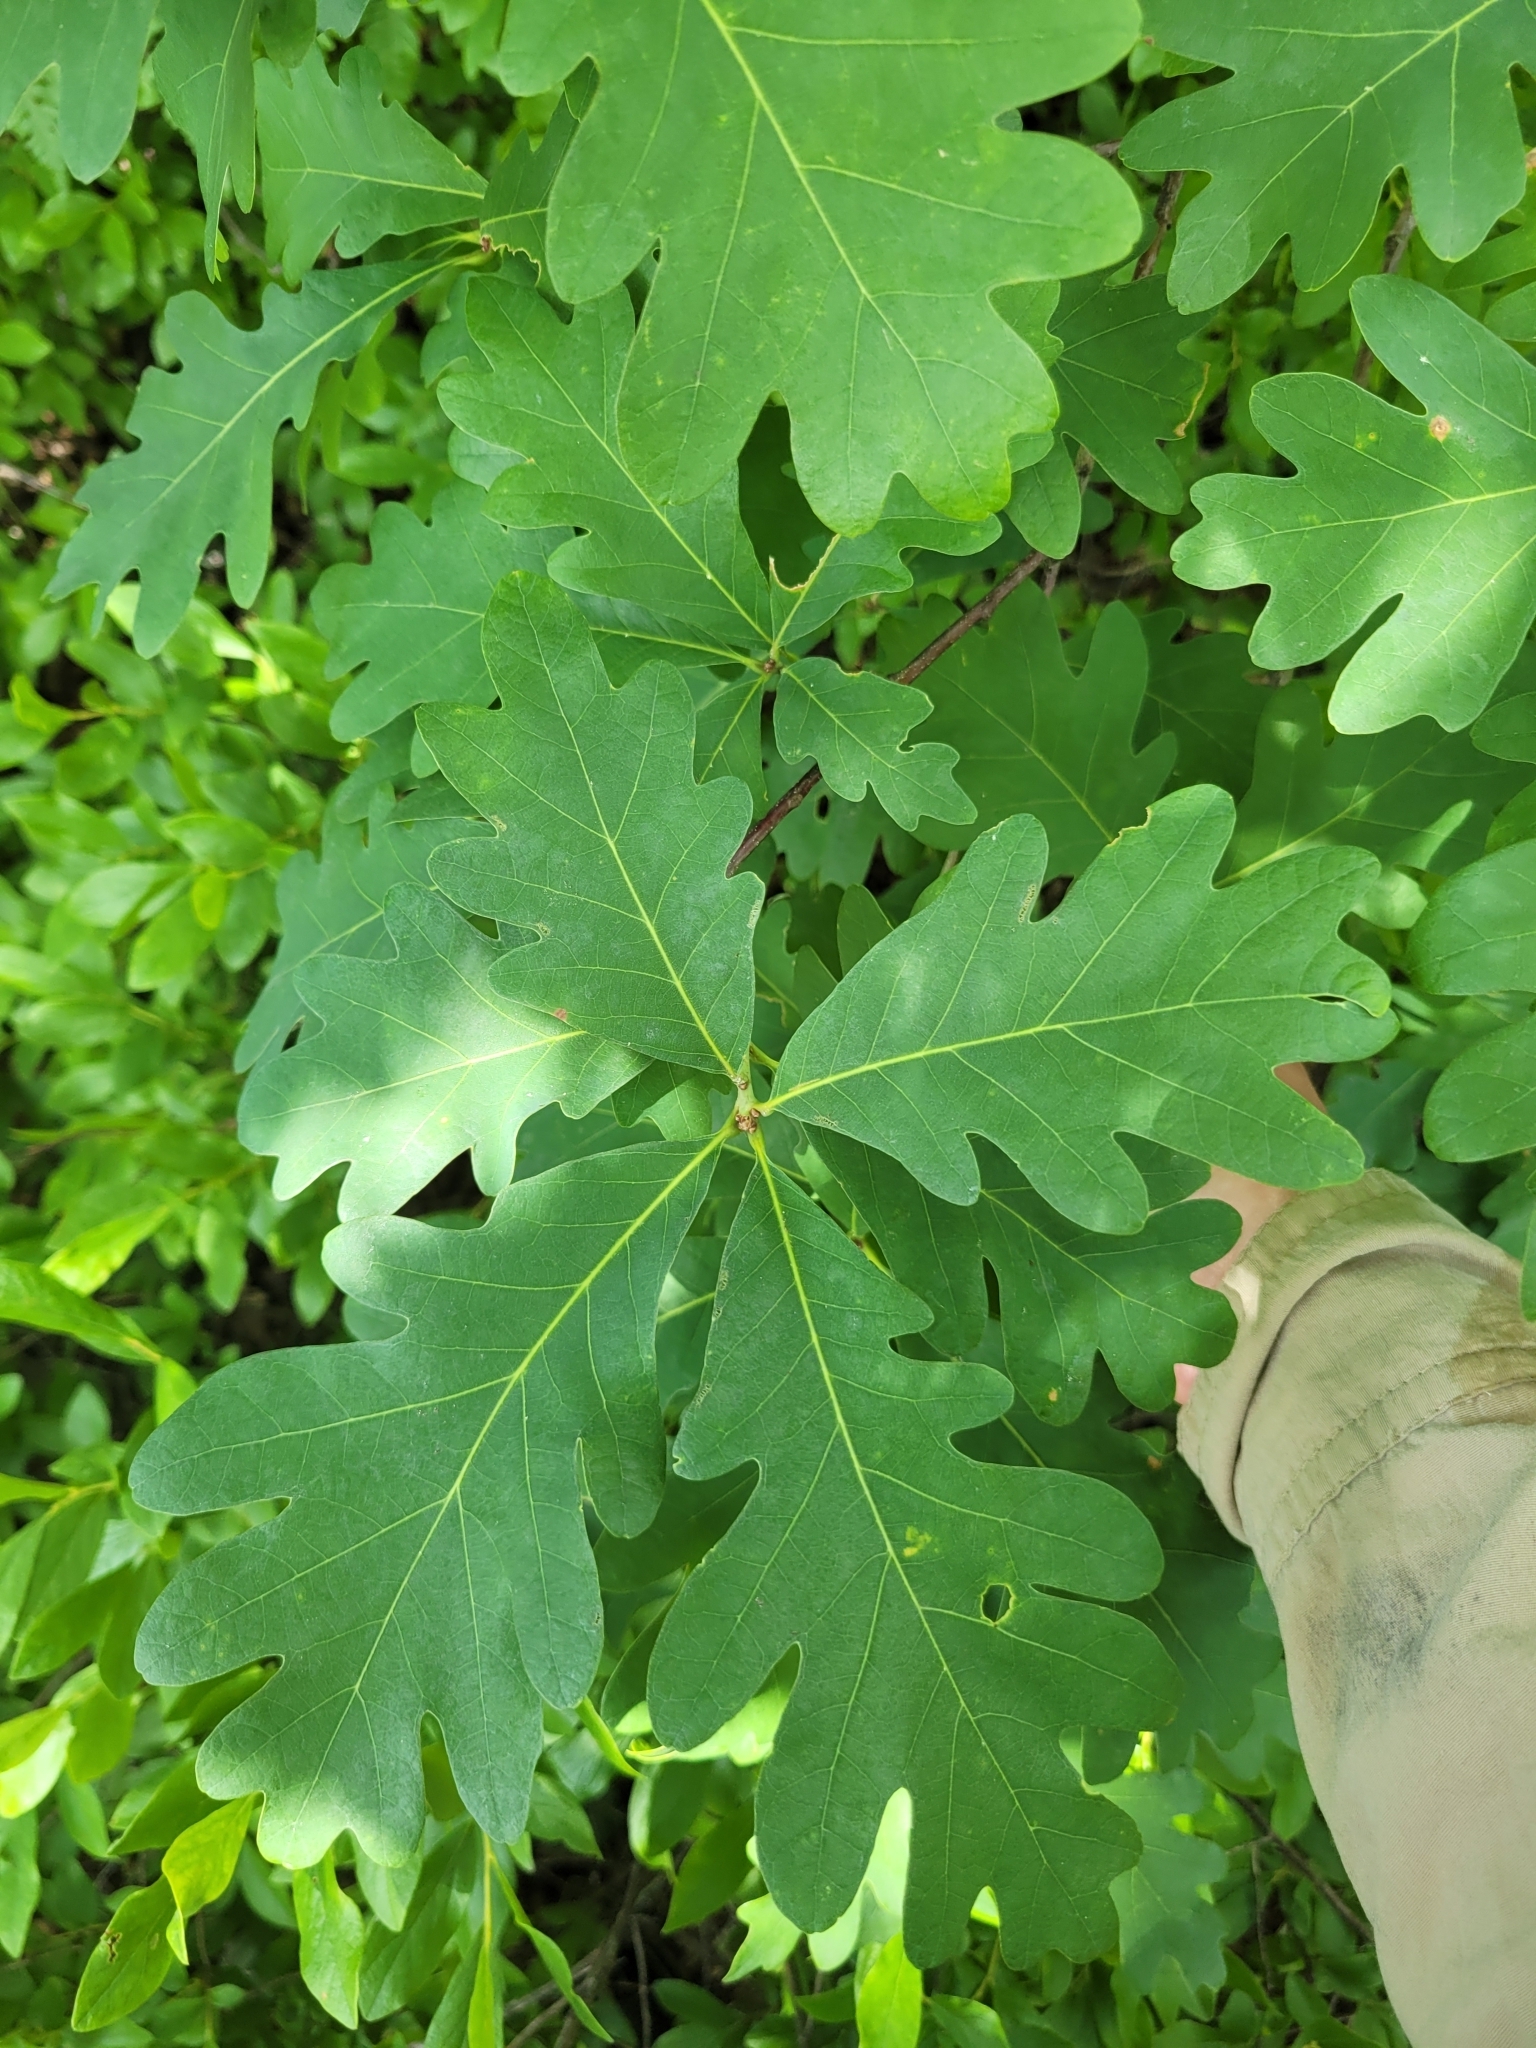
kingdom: Plantae
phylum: Tracheophyta
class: Magnoliopsida
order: Fagales
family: Fagaceae
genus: Quercus
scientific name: Quercus alba
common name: White oak
